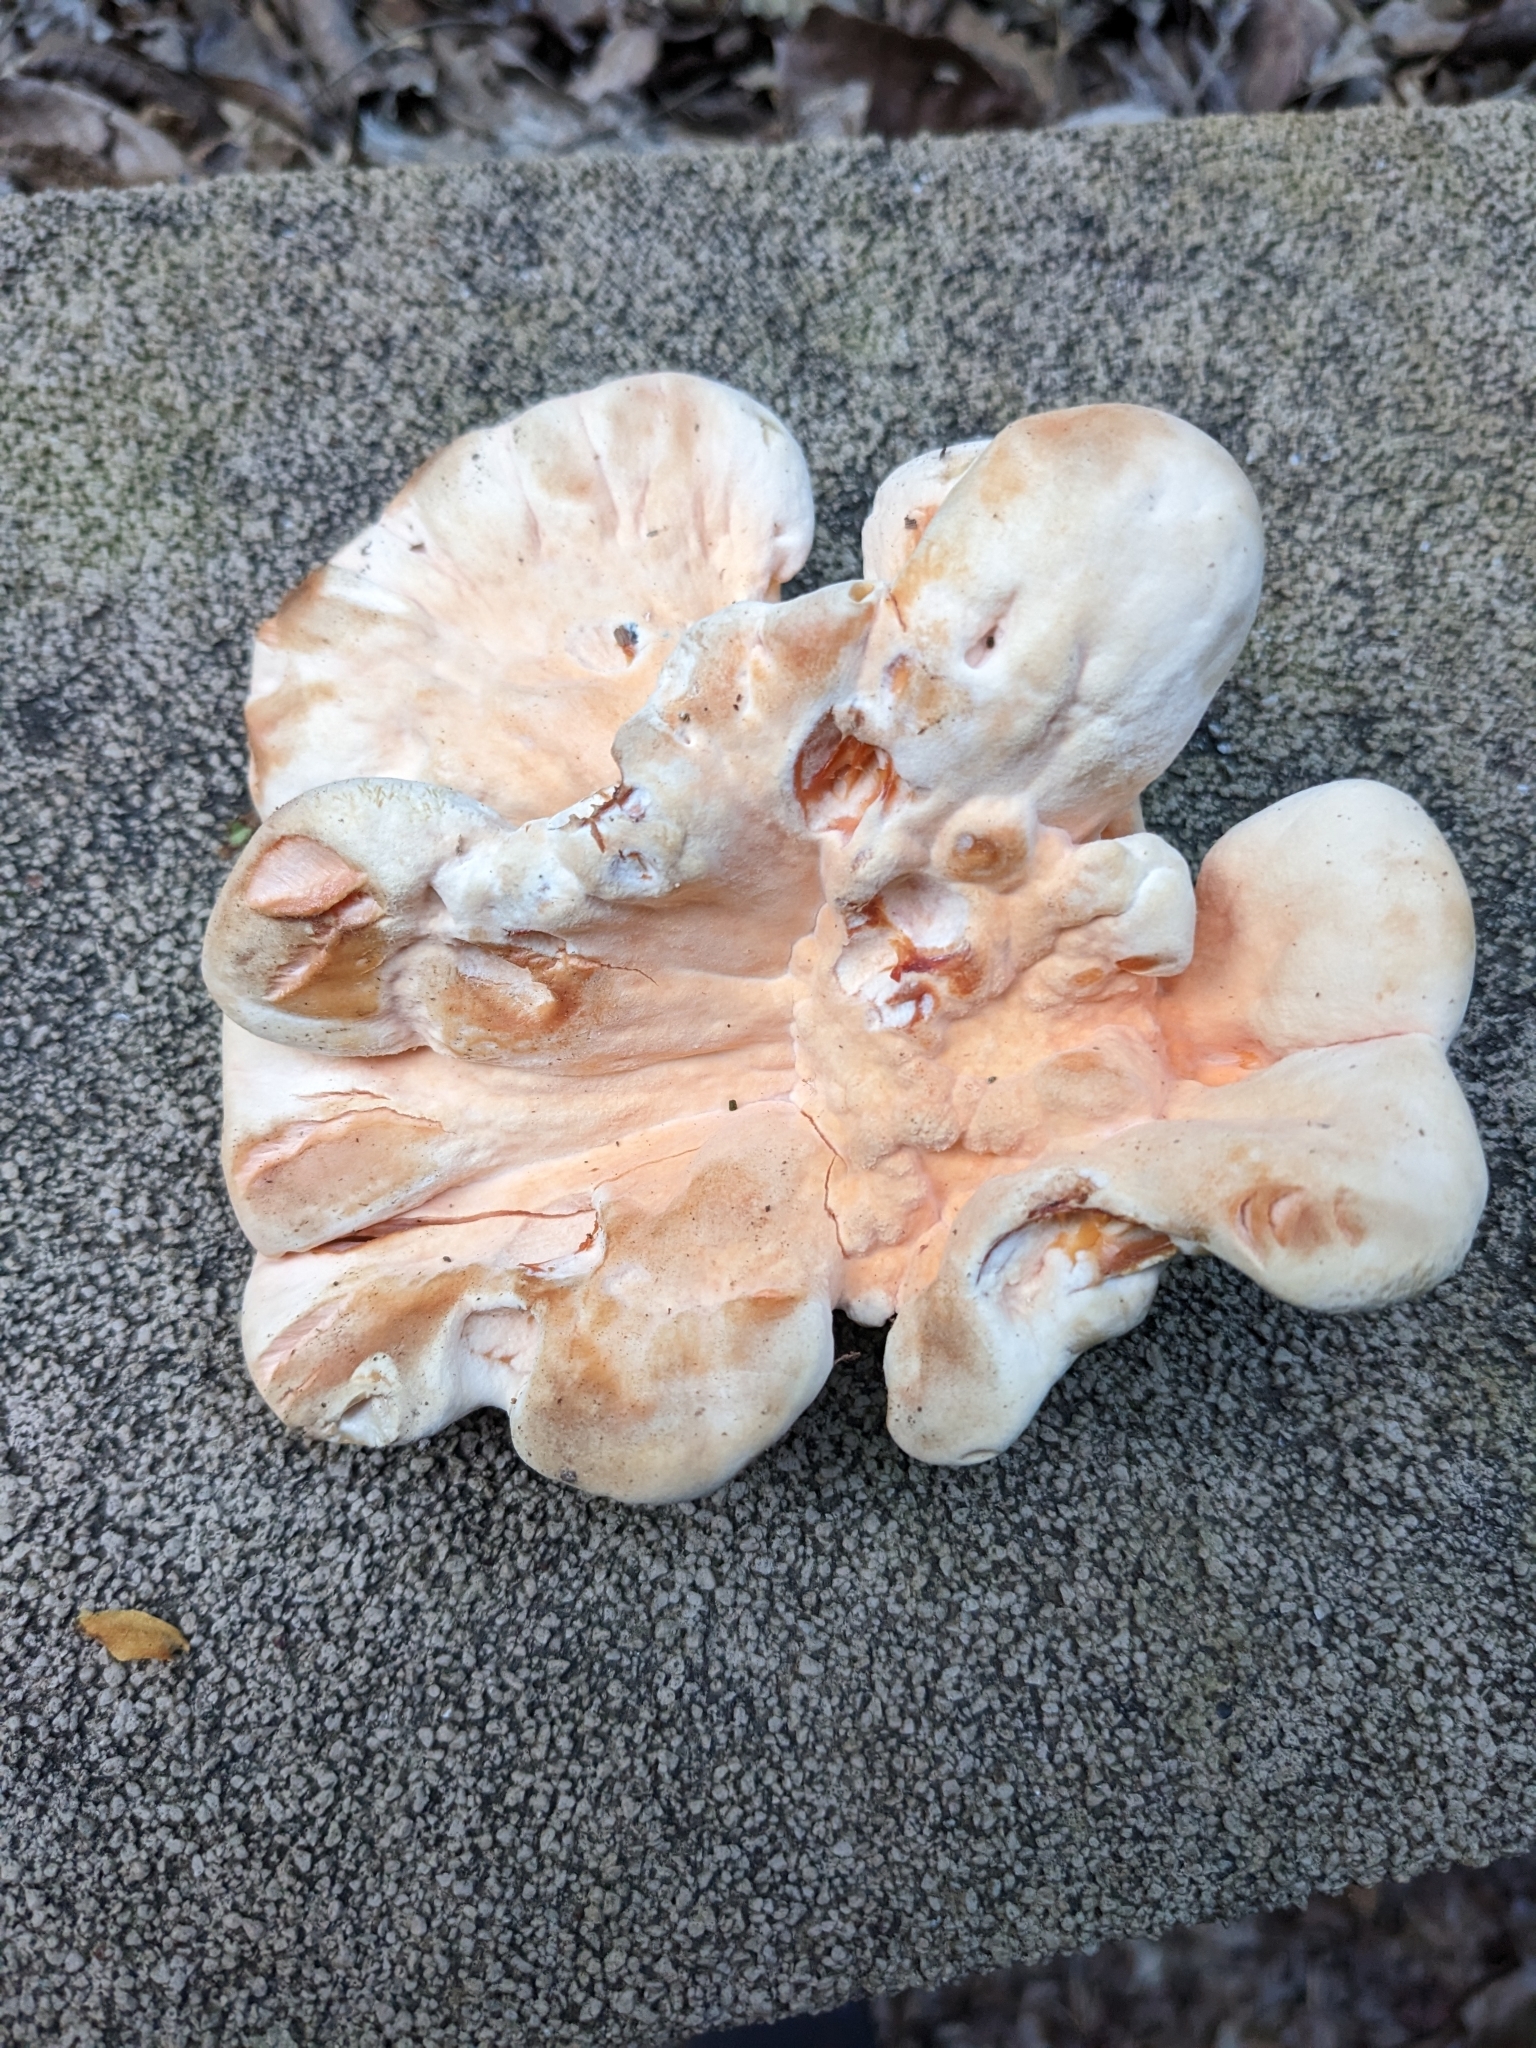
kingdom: Fungi
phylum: Basidiomycota
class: Agaricomycetes
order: Polyporales
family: Laetiporaceae
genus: Laetiporus
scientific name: Laetiporus sulphureus
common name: Chicken of the woods
